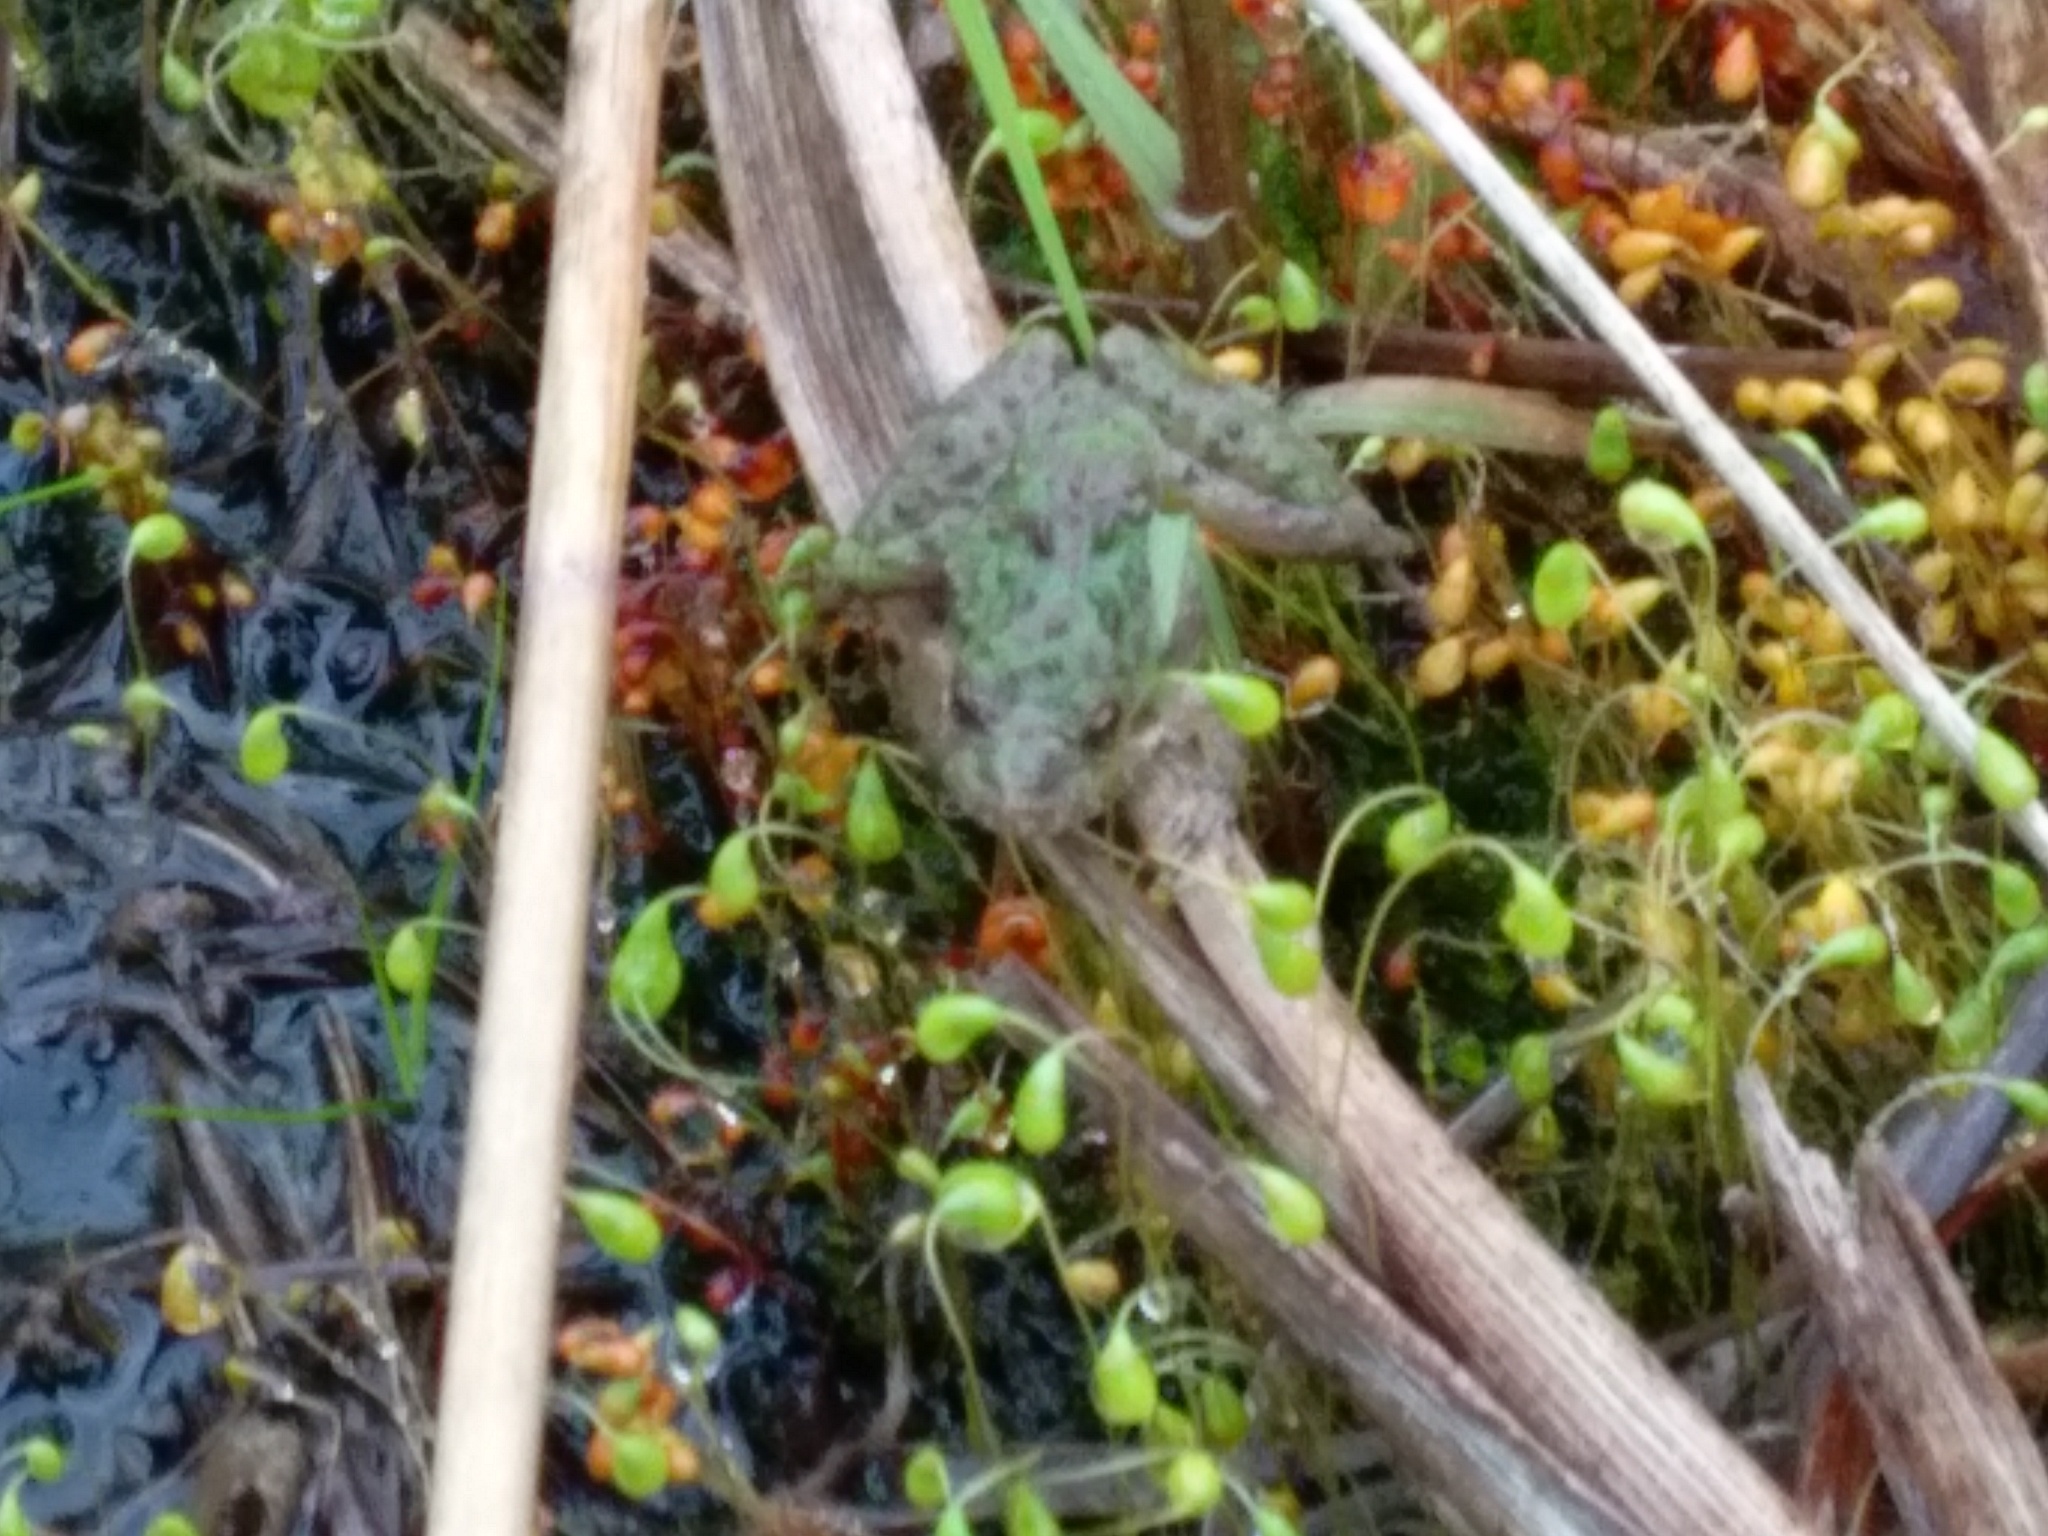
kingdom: Animalia
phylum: Chordata
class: Amphibia
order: Anura
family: Hylidae
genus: Acris
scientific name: Acris crepitans
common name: Northern cricket frog
